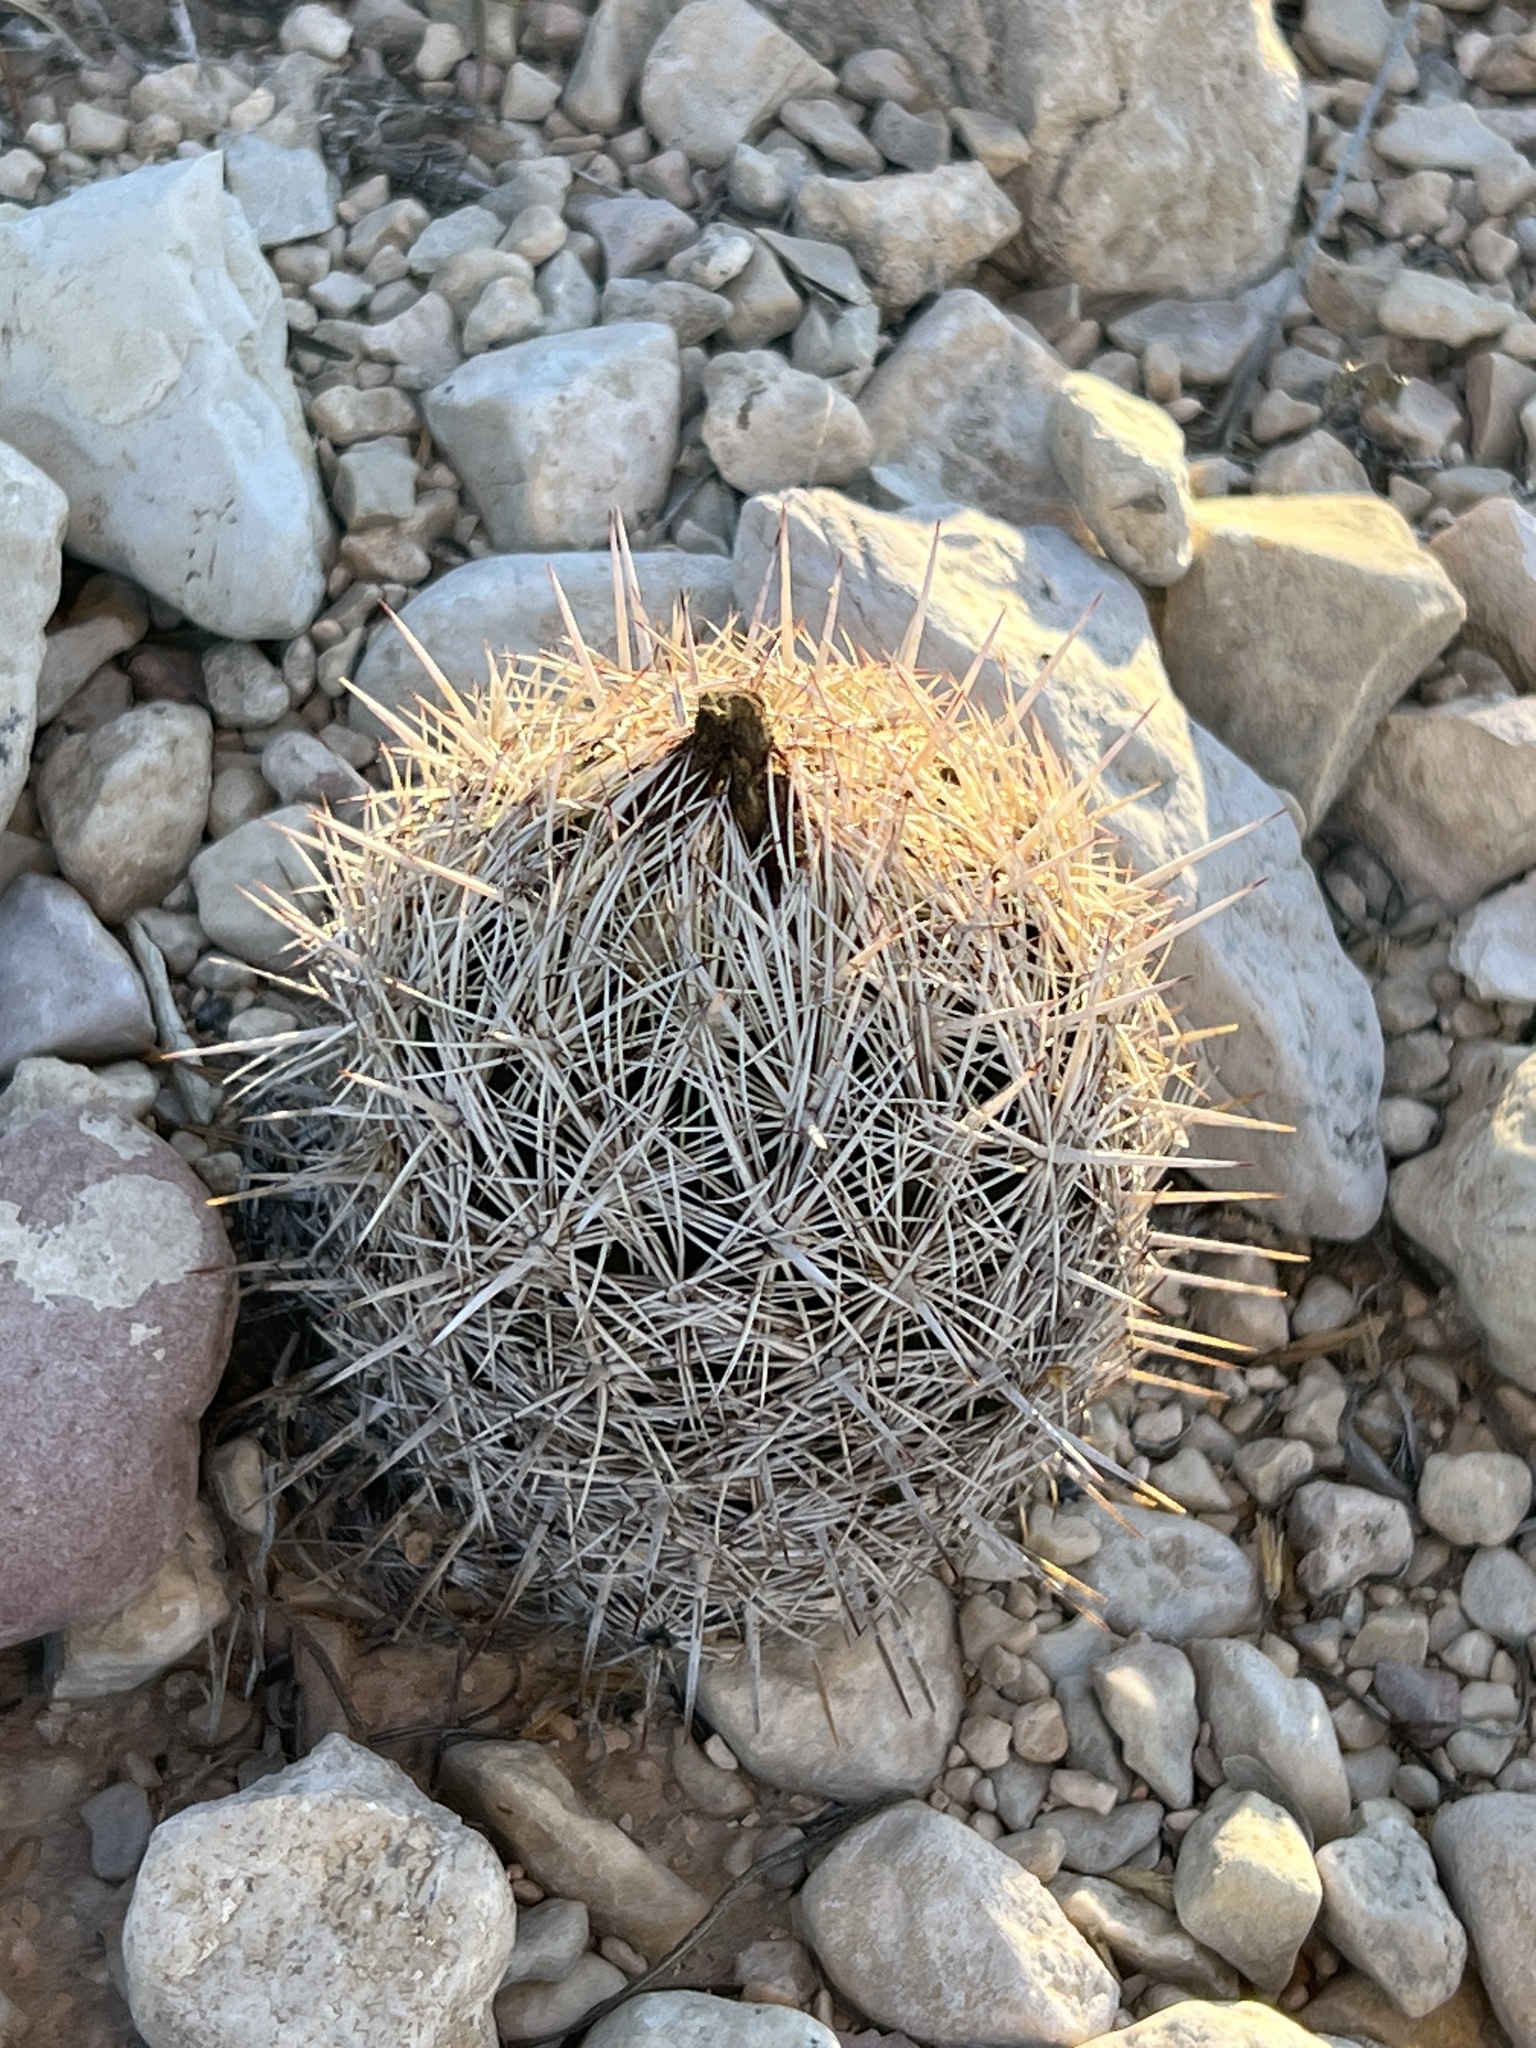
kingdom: Plantae
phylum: Tracheophyta
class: Magnoliopsida
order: Caryophyllales
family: Cactaceae
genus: Coryphantha
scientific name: Coryphantha echinus
